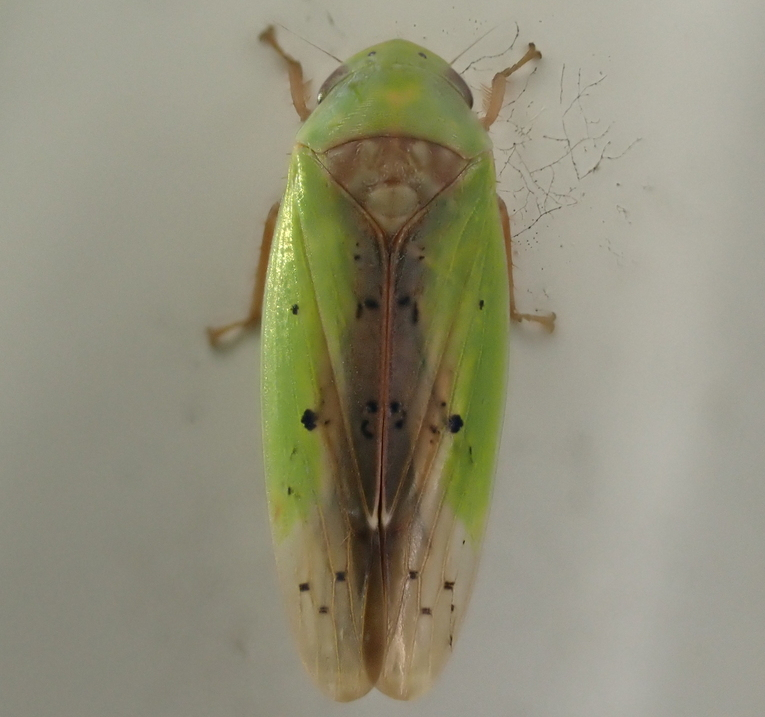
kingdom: Animalia
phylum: Arthropoda
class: Insecta
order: Hemiptera
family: Cicadellidae
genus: Ponana
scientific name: Ponana pectoralis
